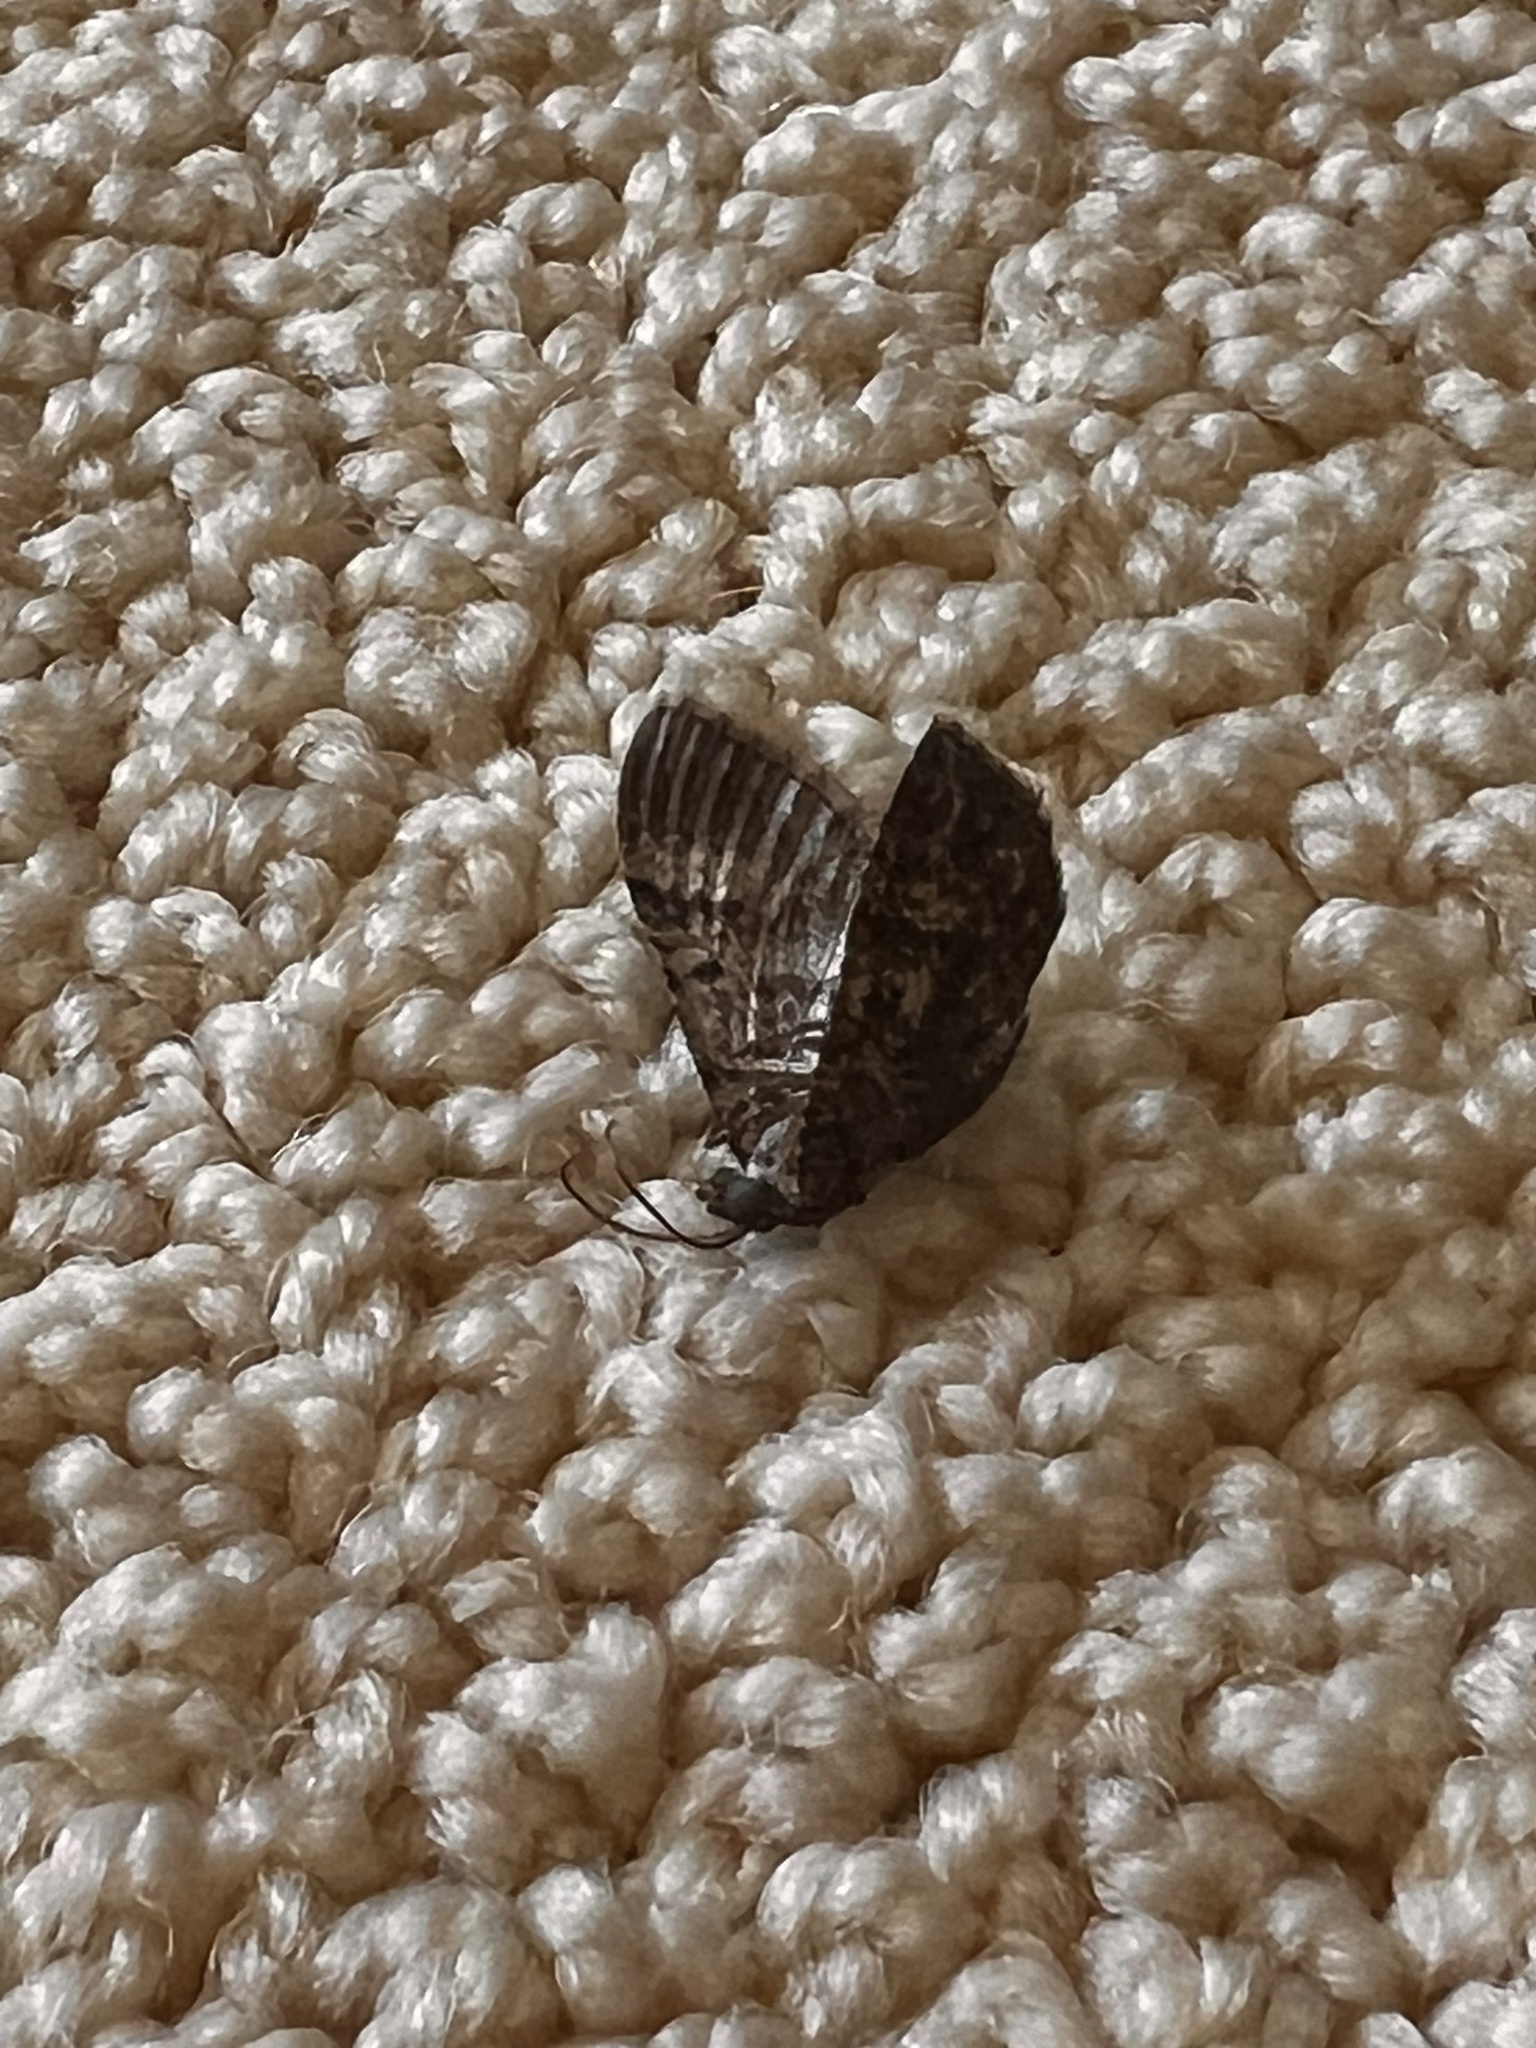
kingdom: Animalia
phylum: Arthropoda
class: Insecta
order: Lepidoptera
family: Geometridae
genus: Disclisioprocta
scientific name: Disclisioprocta stellata
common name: Somber carpet
